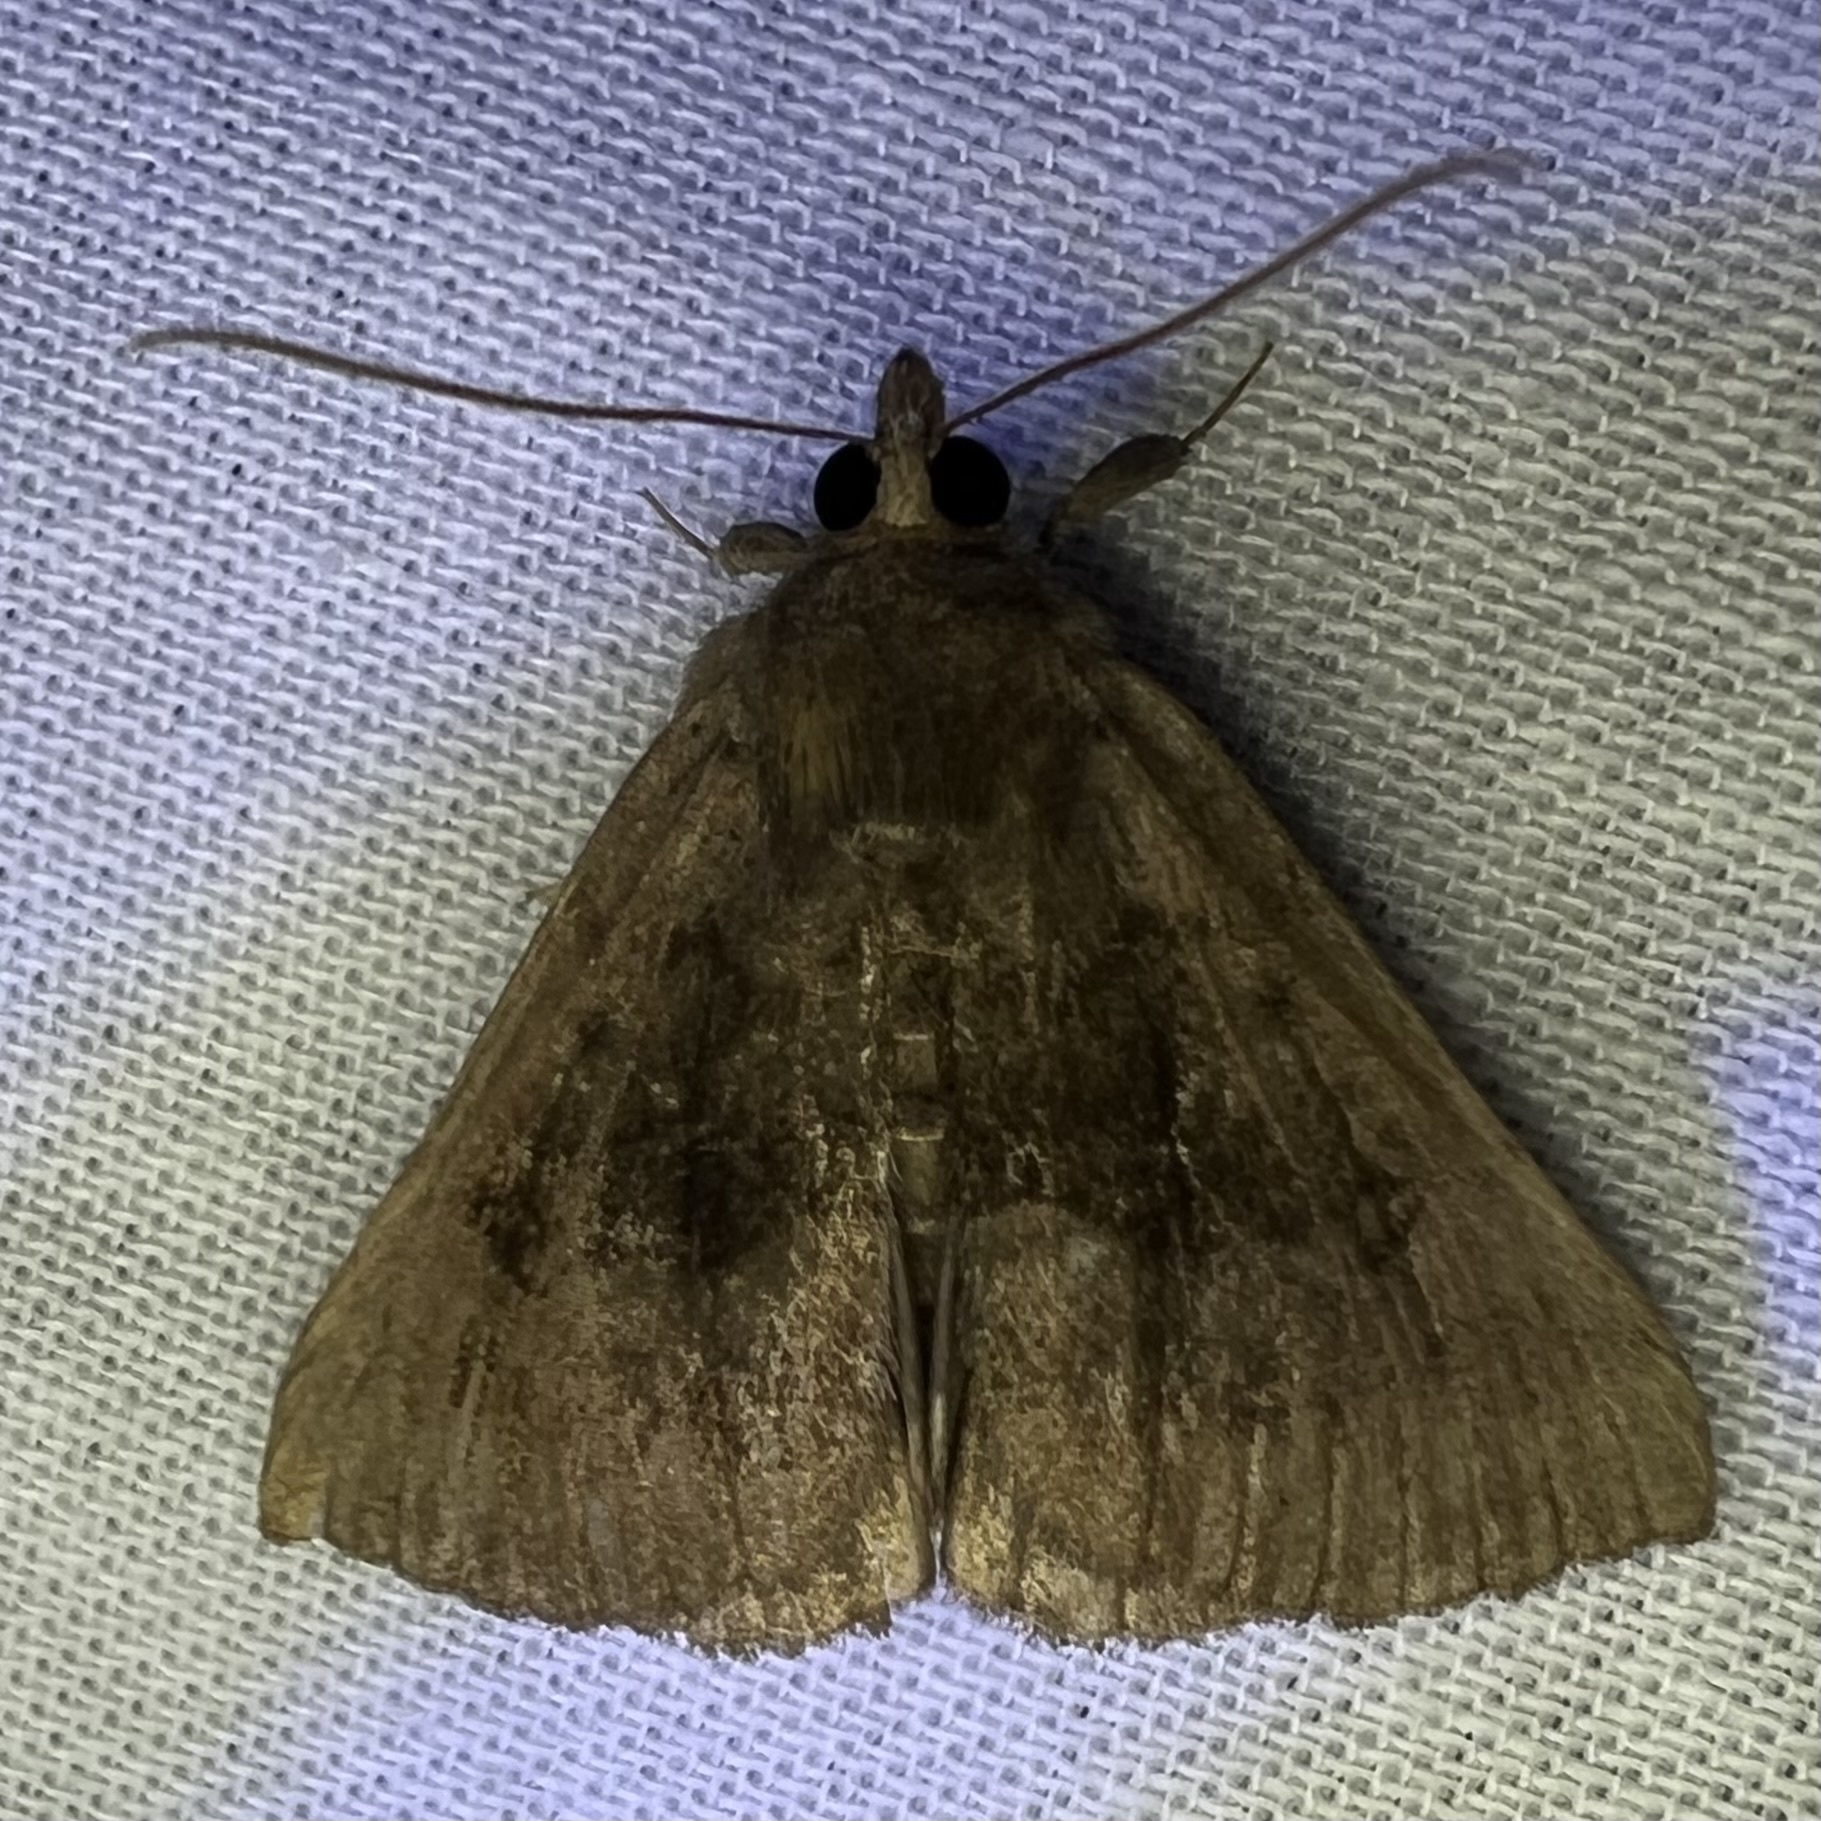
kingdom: Animalia
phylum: Arthropoda
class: Insecta
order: Lepidoptera
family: Erebidae
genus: Hypena
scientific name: Hypena madefactalis
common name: Gray-edged snout
